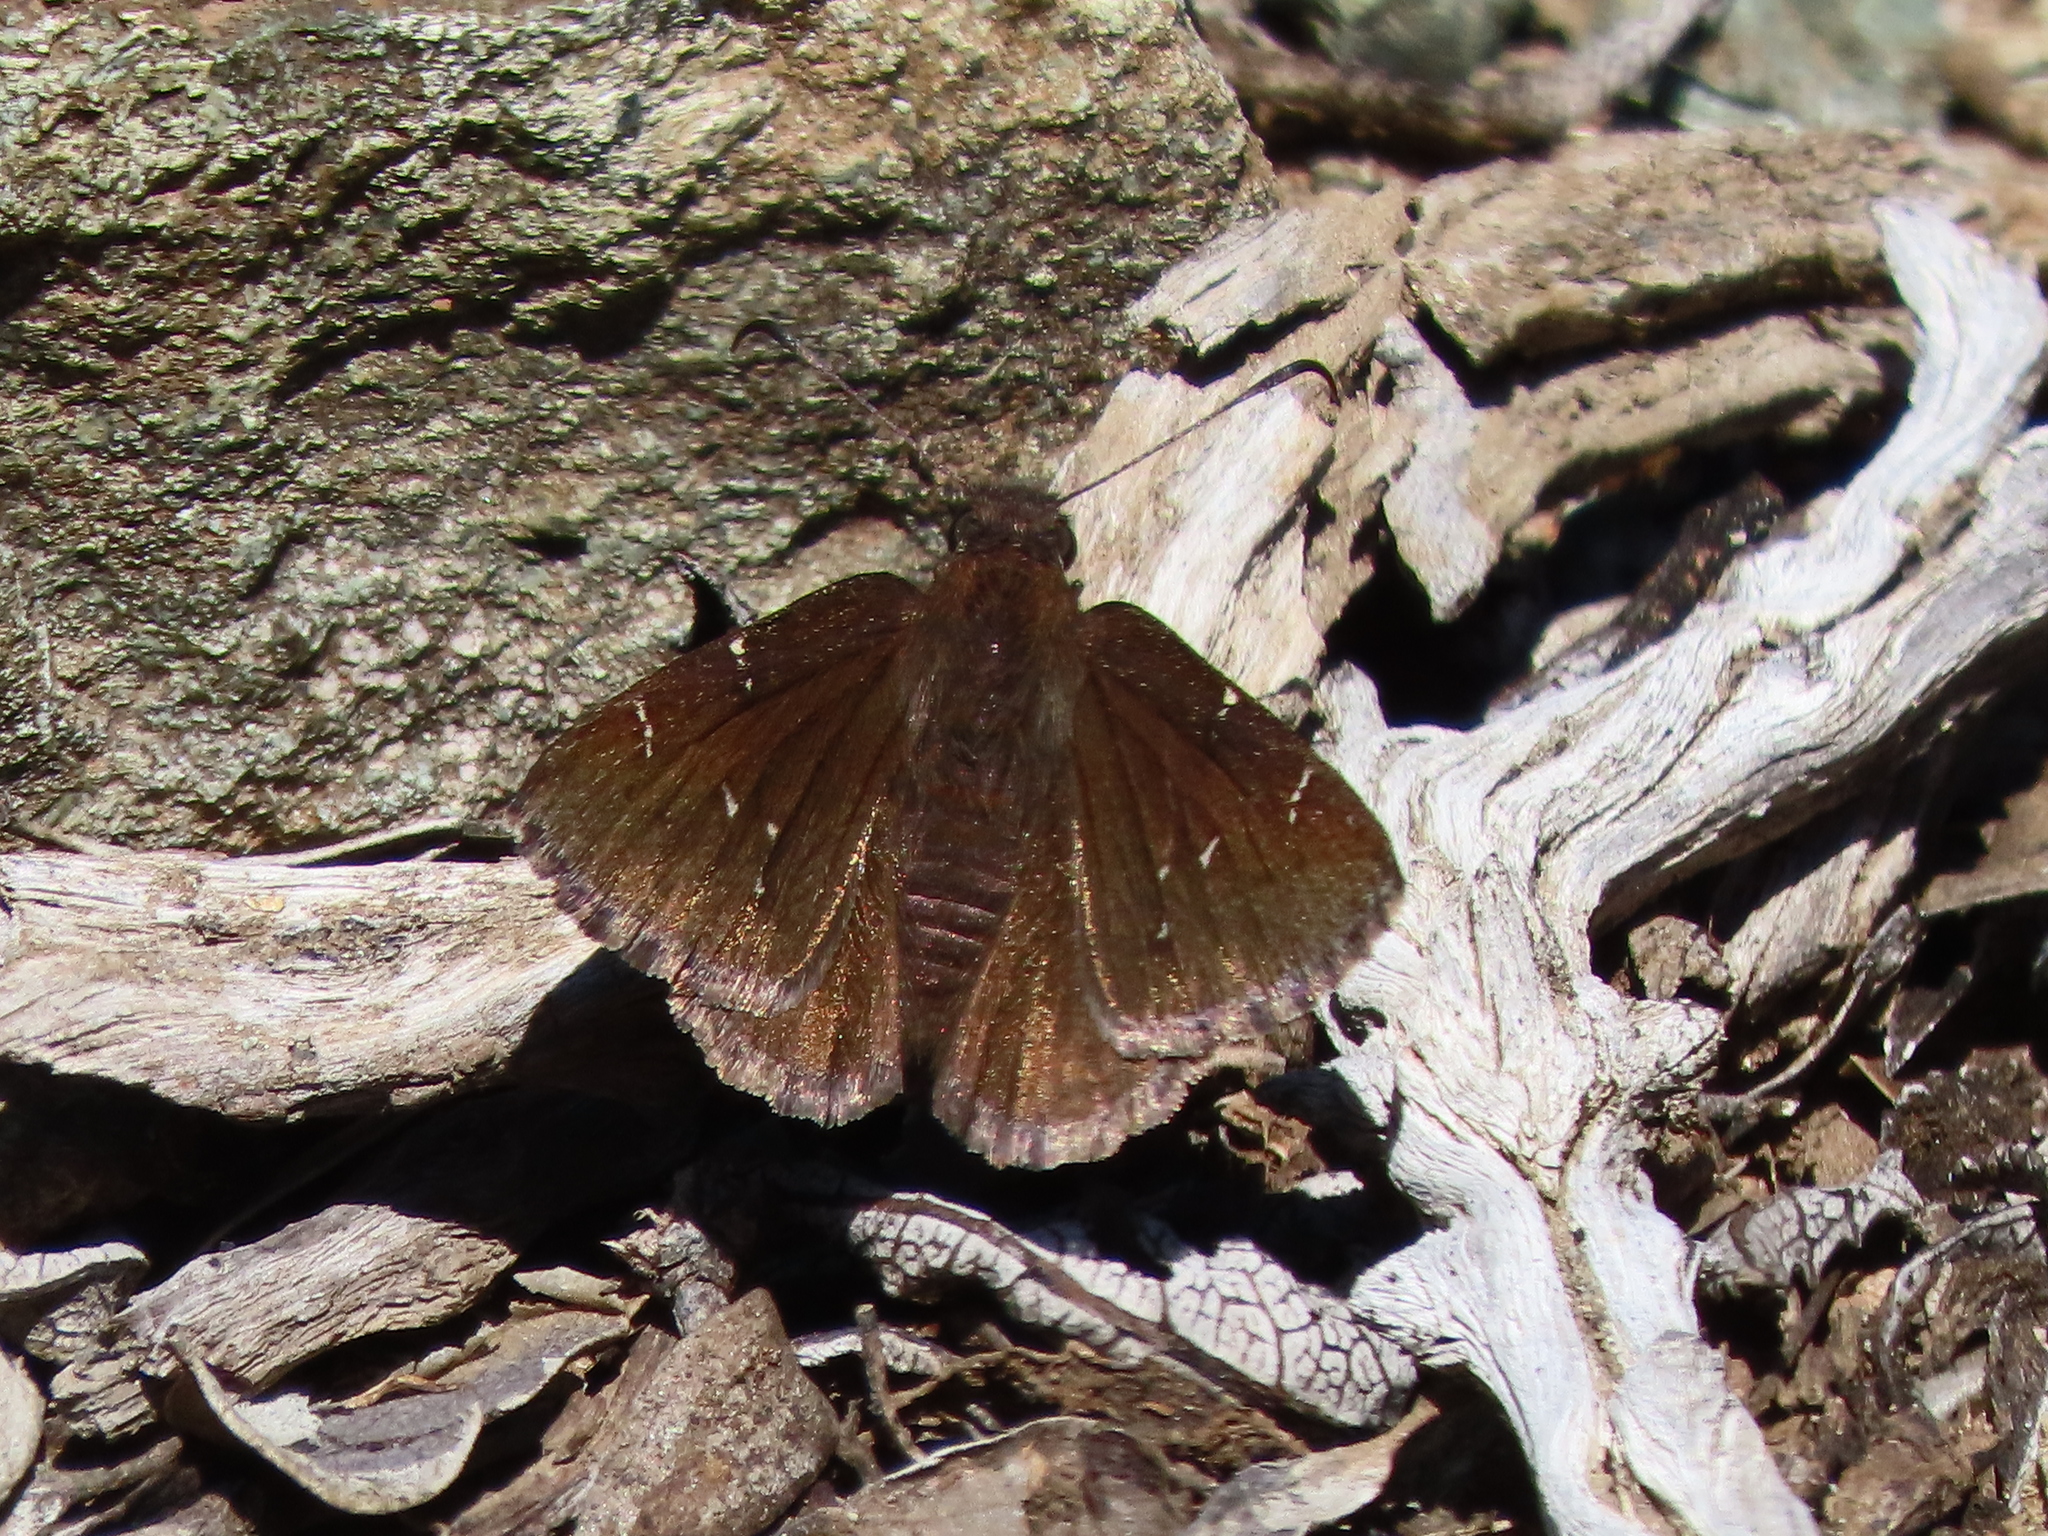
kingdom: Animalia
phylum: Arthropoda
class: Insecta
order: Lepidoptera
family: Hesperiidae
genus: Thorybes
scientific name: Thorybes pylades
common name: Northern cloudywing
